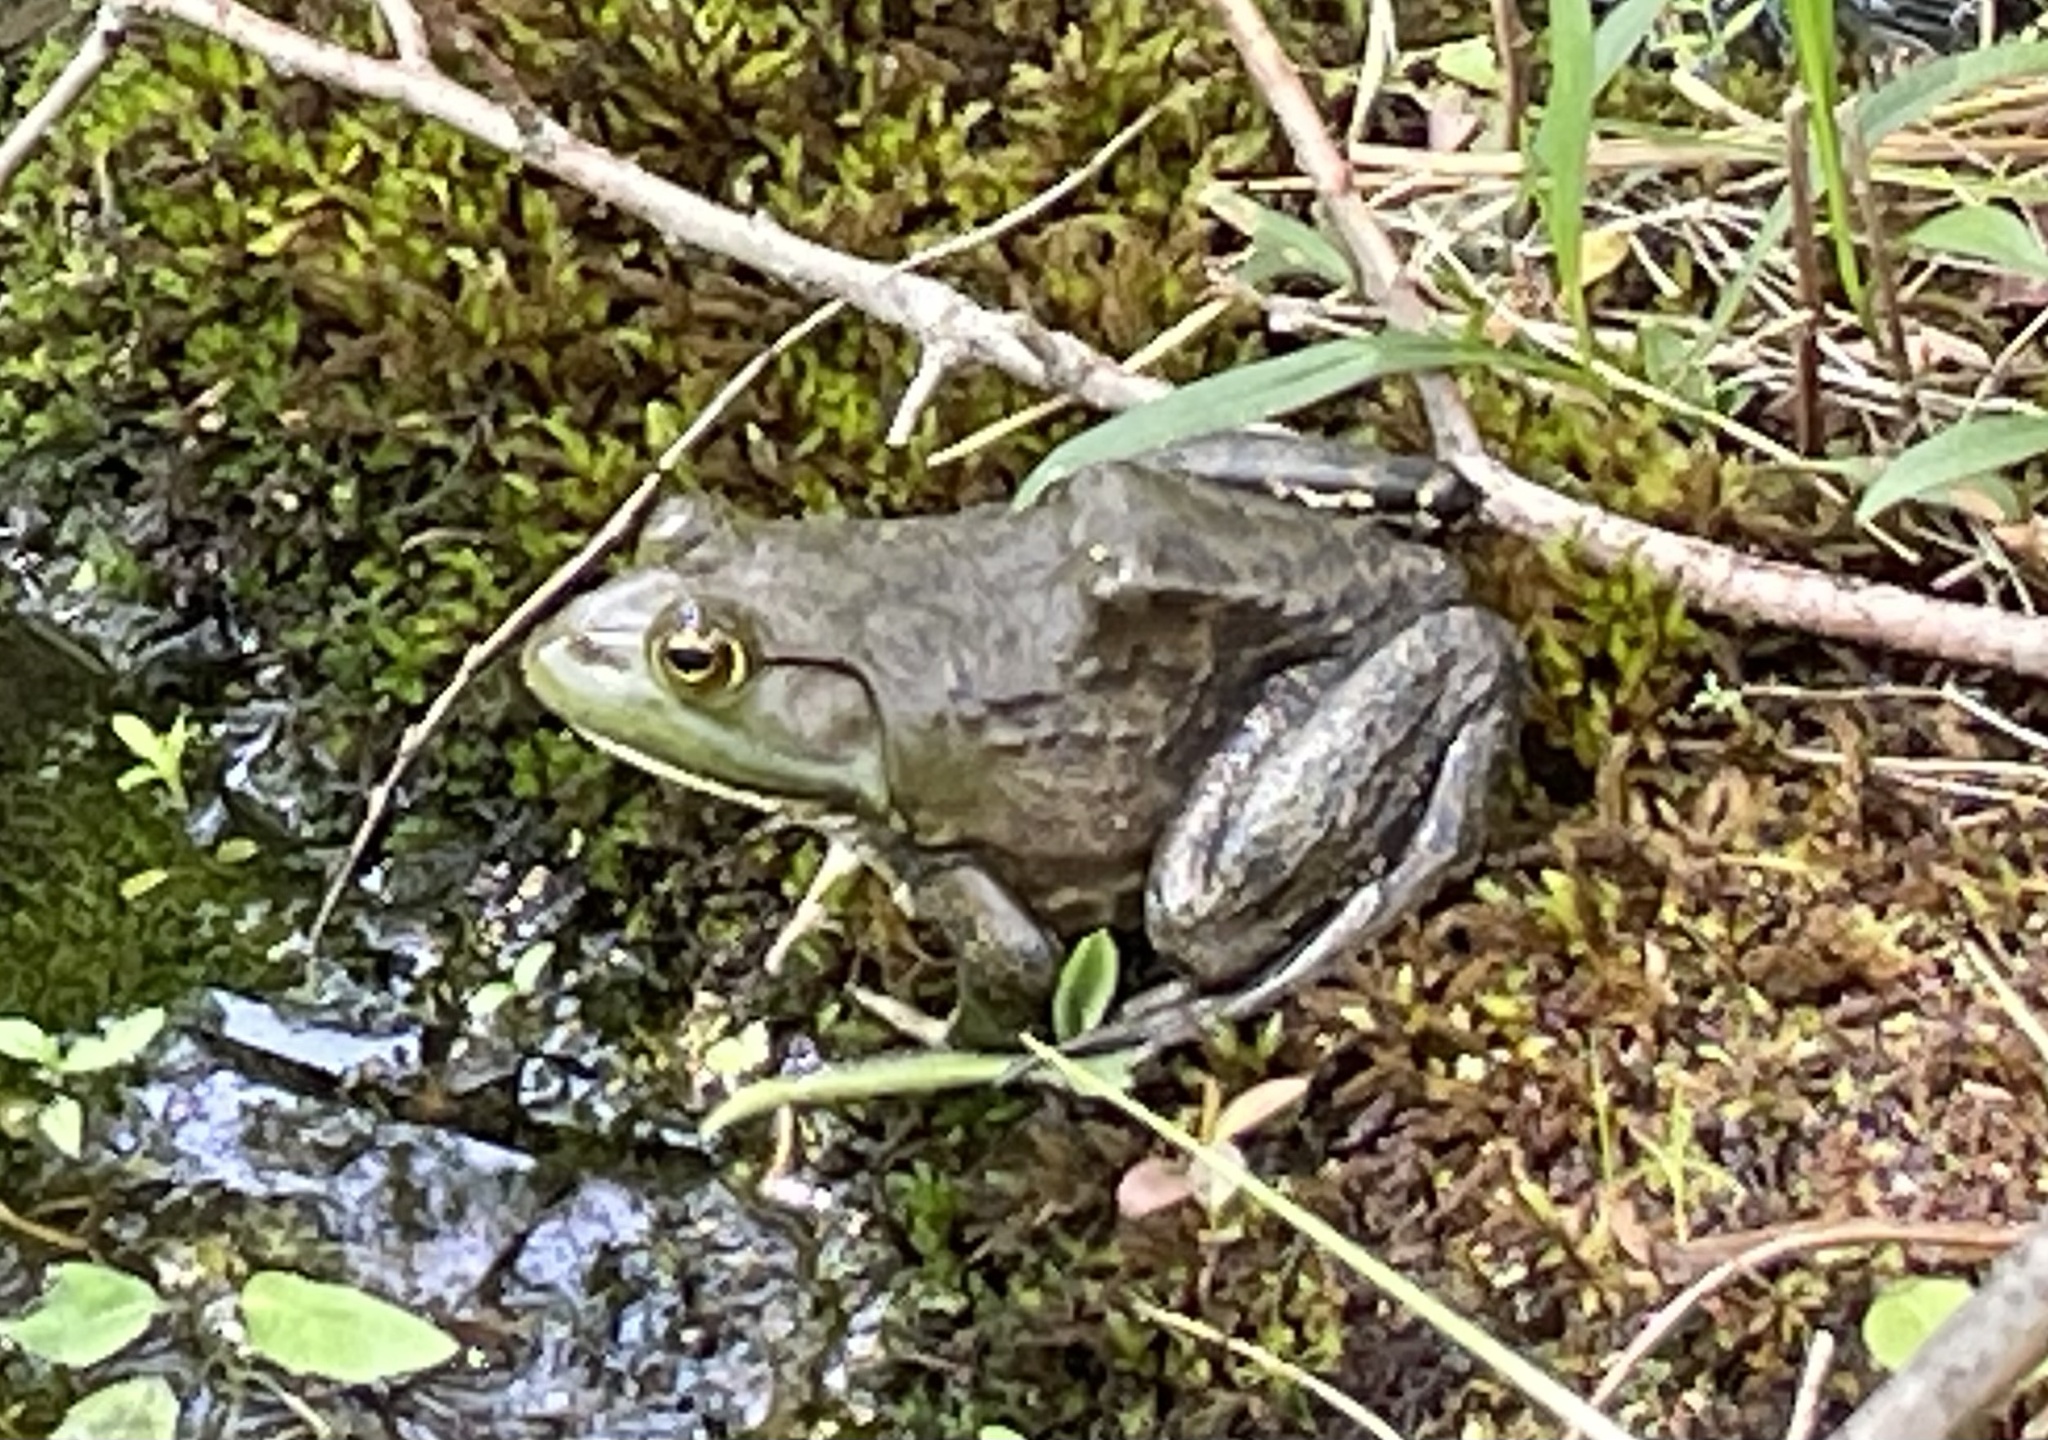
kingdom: Animalia
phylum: Chordata
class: Amphibia
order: Anura
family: Ranidae
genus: Lithobates
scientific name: Lithobates catesbeianus
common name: American bullfrog
